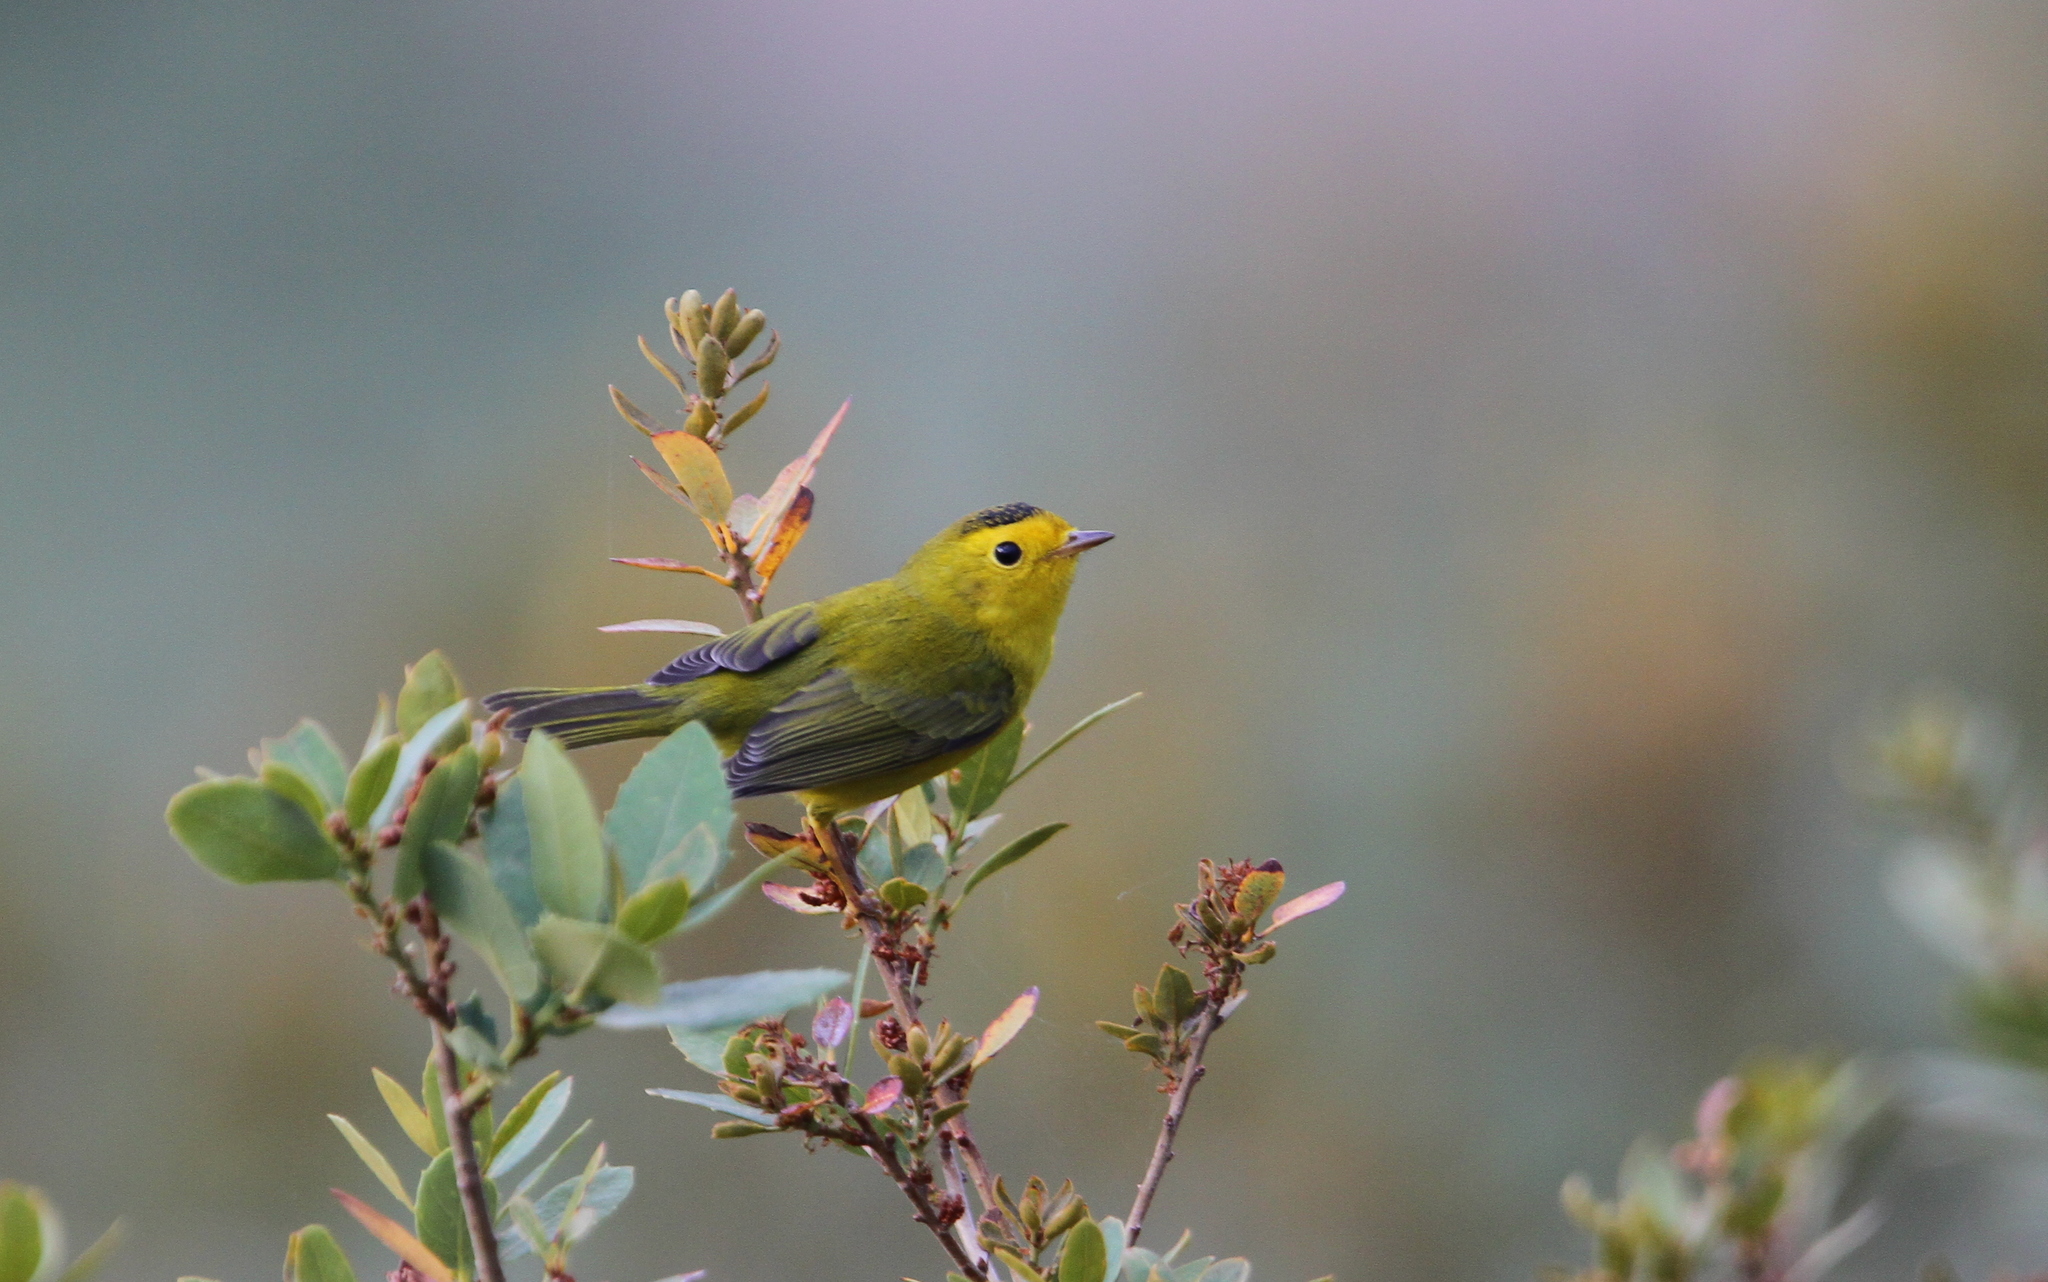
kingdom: Animalia
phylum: Chordata
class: Aves
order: Passeriformes
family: Parulidae
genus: Cardellina
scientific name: Cardellina pusilla
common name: Wilson's warbler
